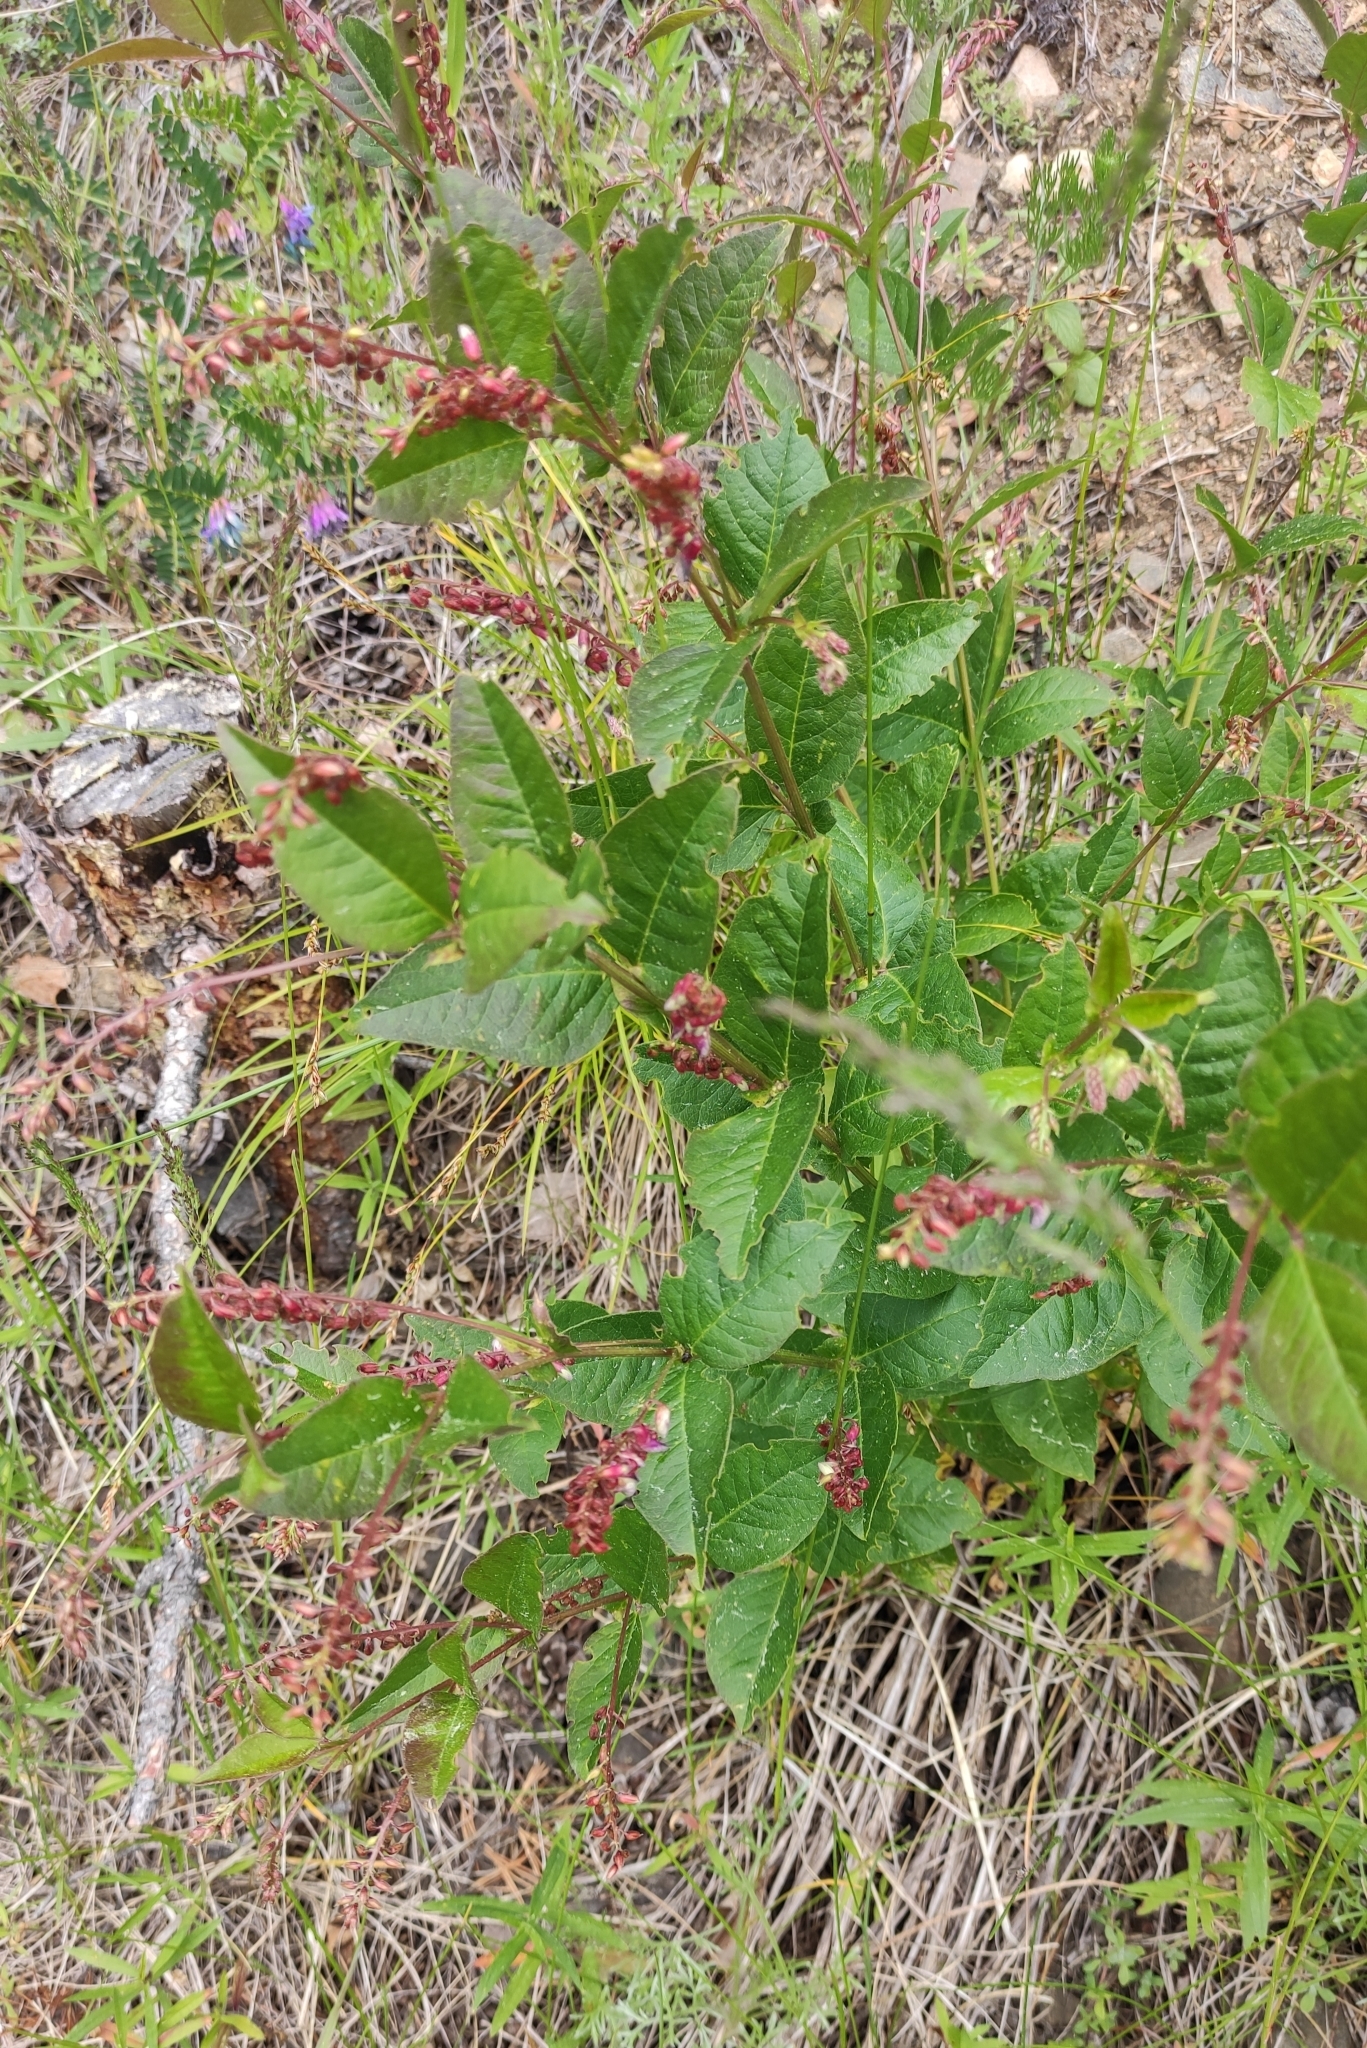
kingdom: Plantae
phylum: Tracheophyta
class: Magnoliopsida
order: Fabales
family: Fabaceae
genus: Vicia
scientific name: Vicia unijuga
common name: Two-leaf vetch
